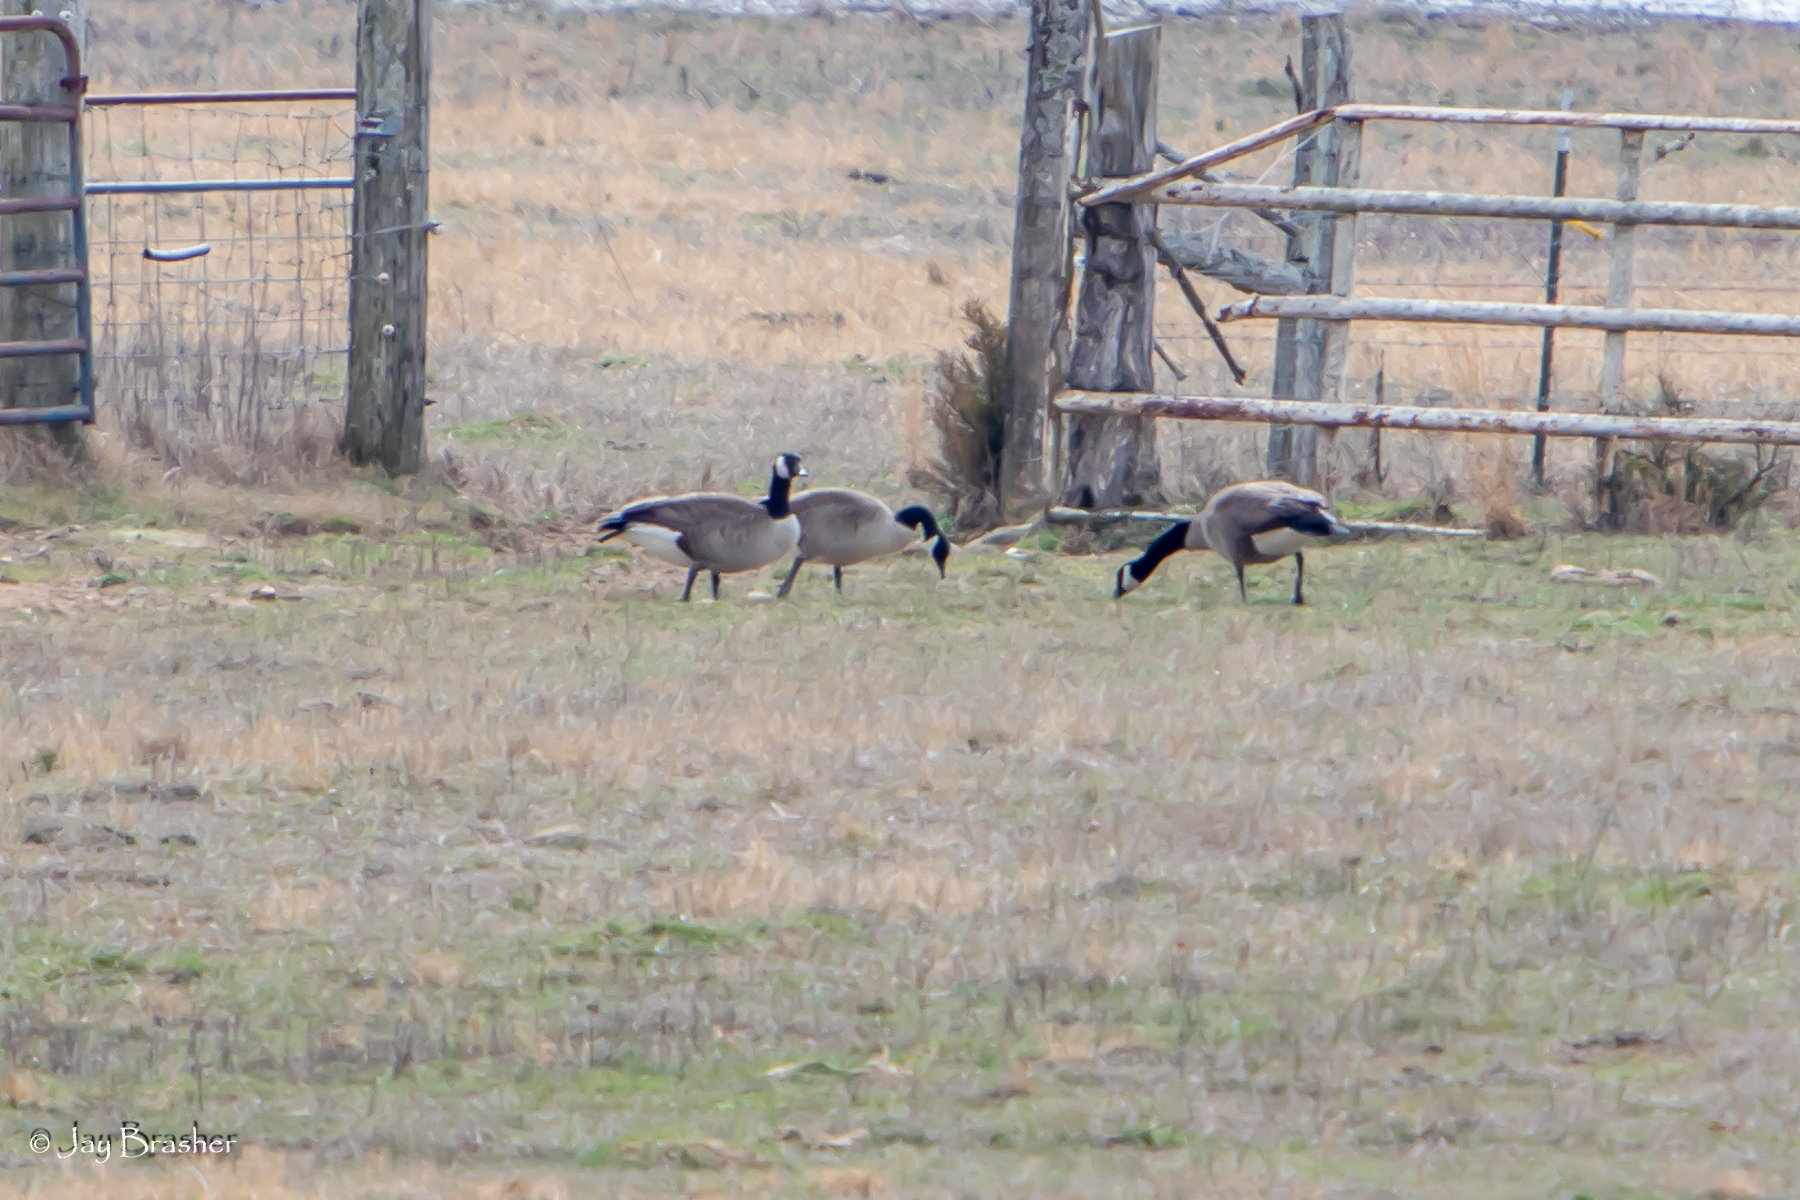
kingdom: Animalia
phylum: Chordata
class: Aves
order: Anseriformes
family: Anatidae
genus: Branta
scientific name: Branta canadensis
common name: Canada goose
